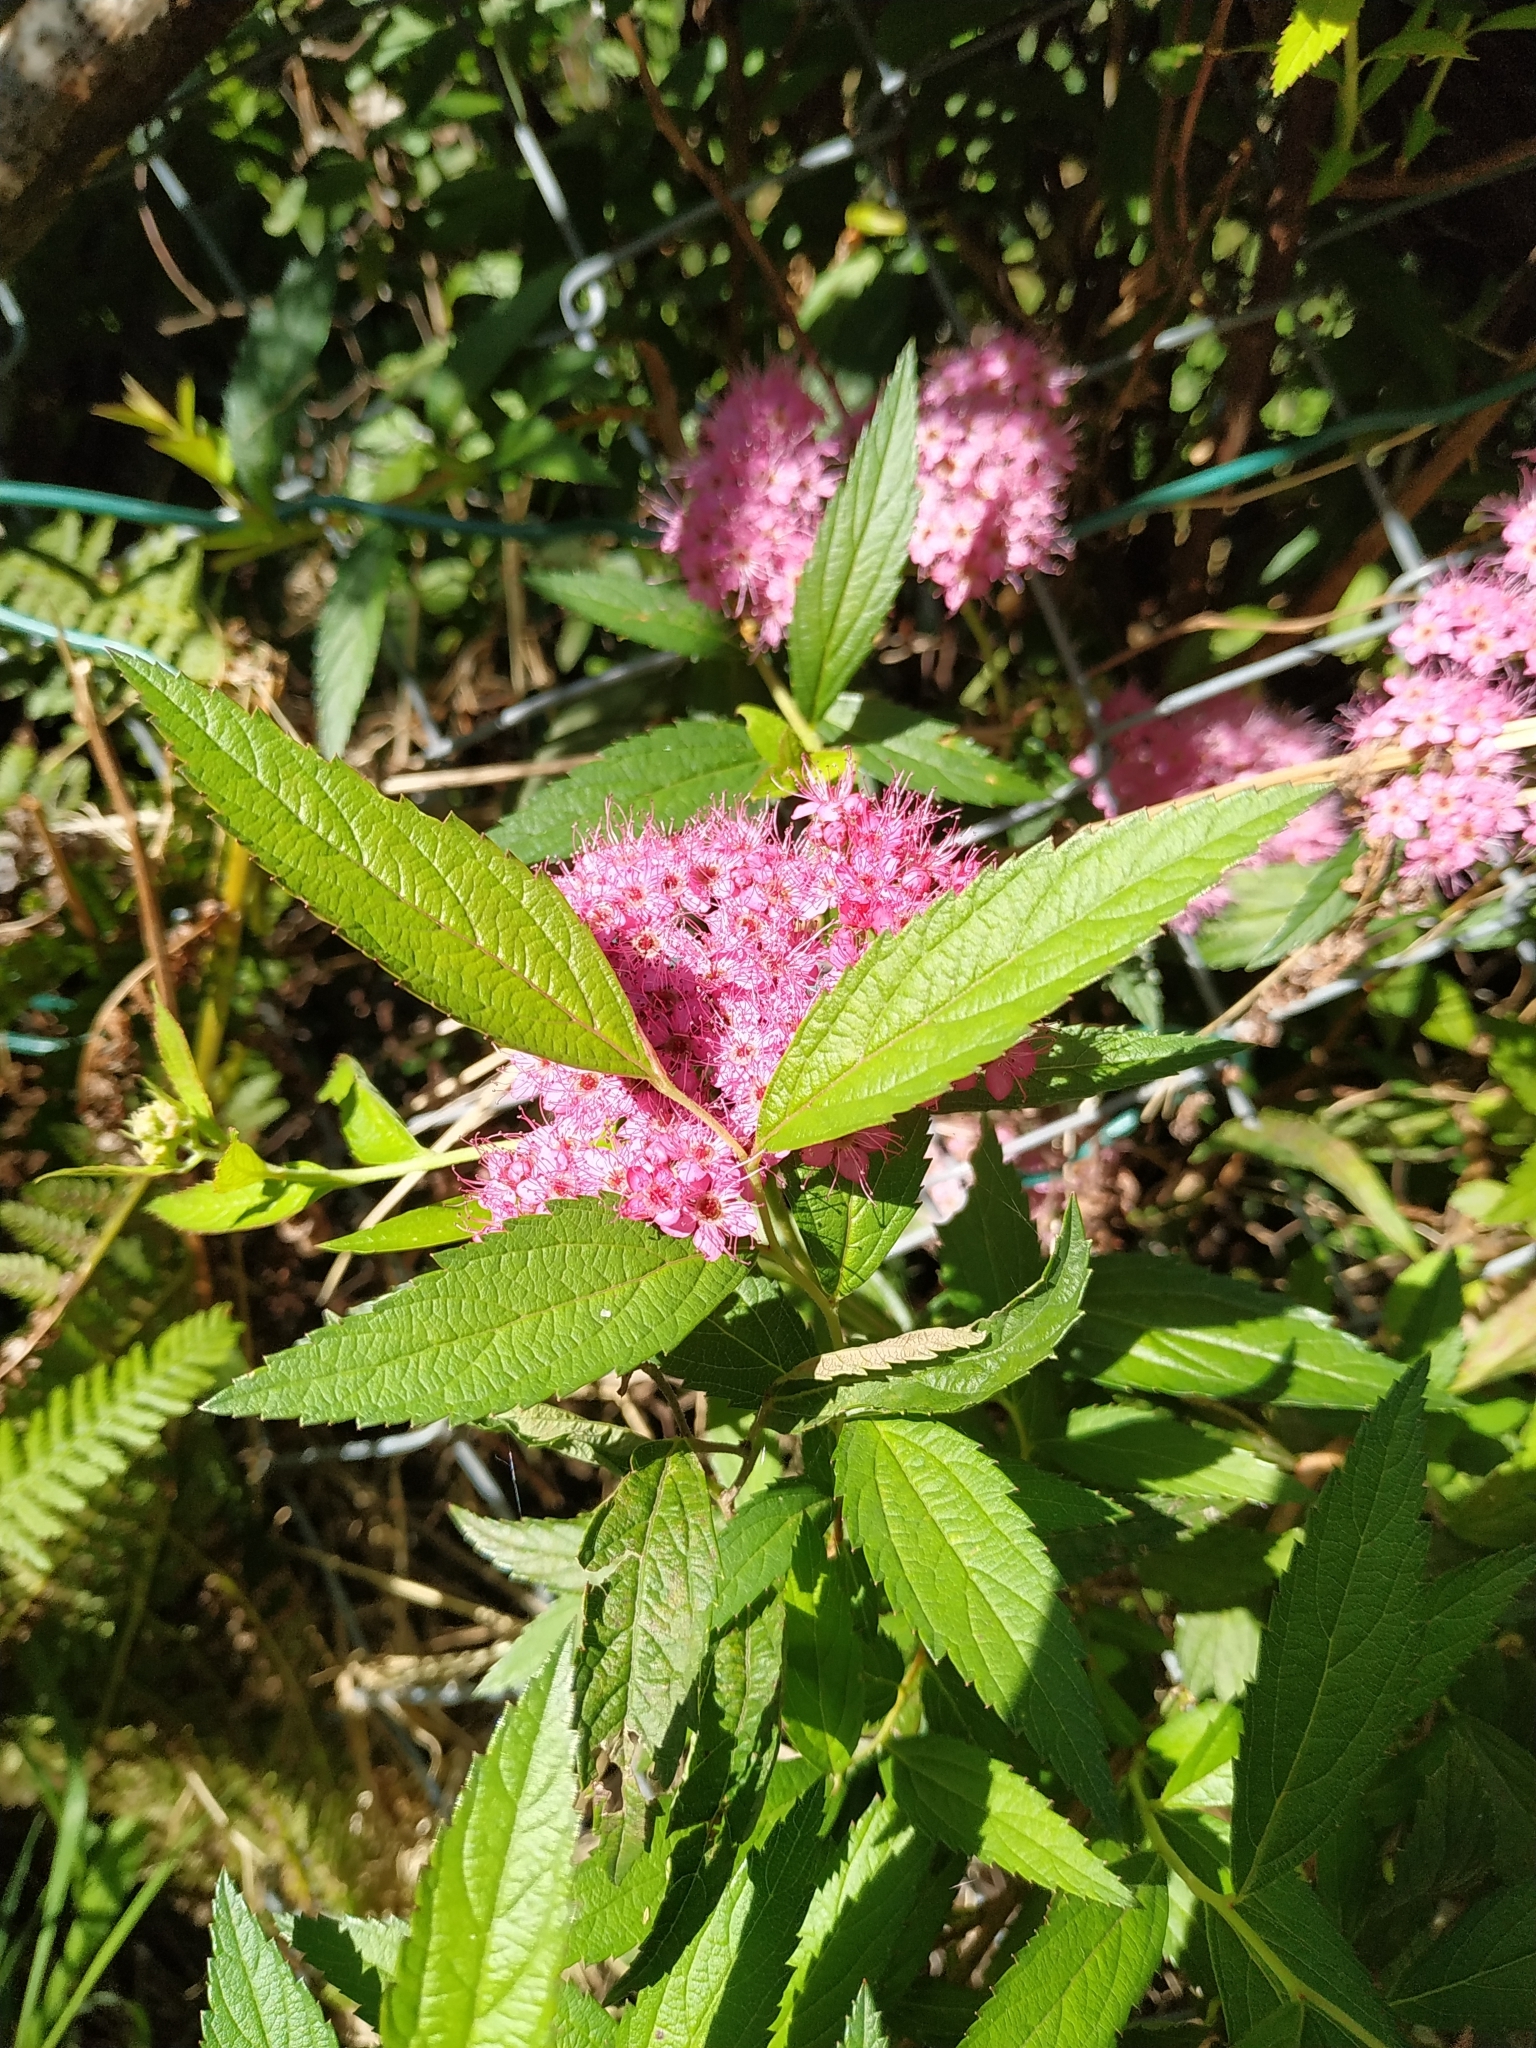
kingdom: Plantae
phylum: Tracheophyta
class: Magnoliopsida
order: Rosales
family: Rosaceae
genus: Spiraea
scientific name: Spiraea japonica
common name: Japanese spiraea
